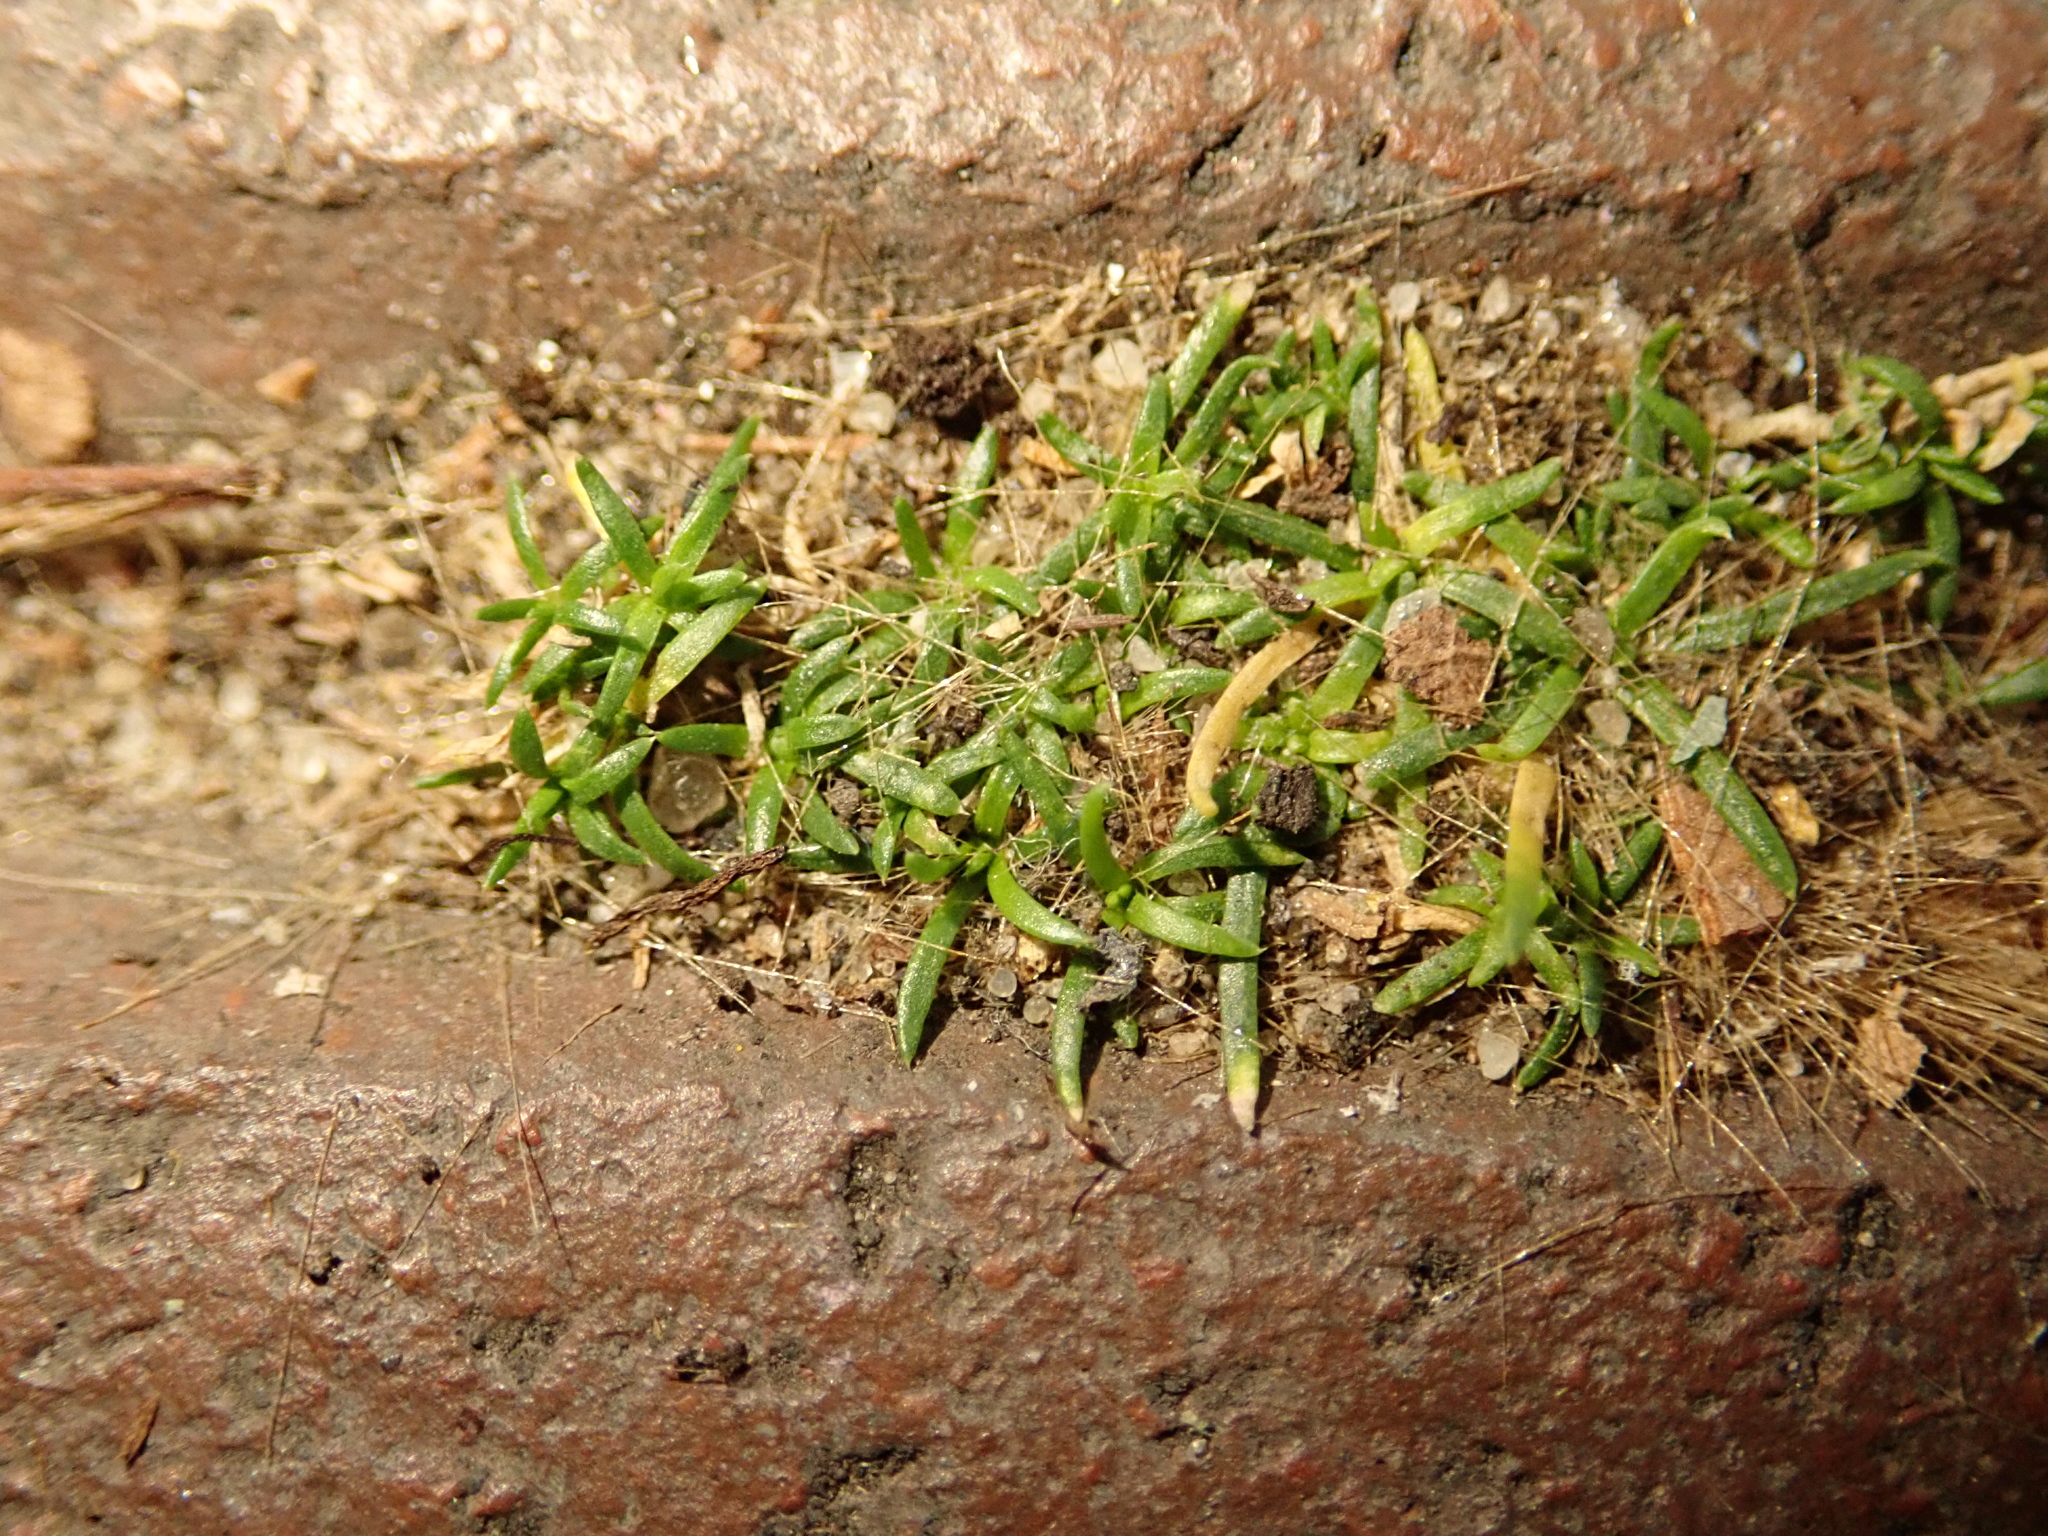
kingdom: Plantae
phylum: Tracheophyta
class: Magnoliopsida
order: Caryophyllales
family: Caryophyllaceae
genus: Sagina
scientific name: Sagina procumbens
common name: Procumbent pearlwort
